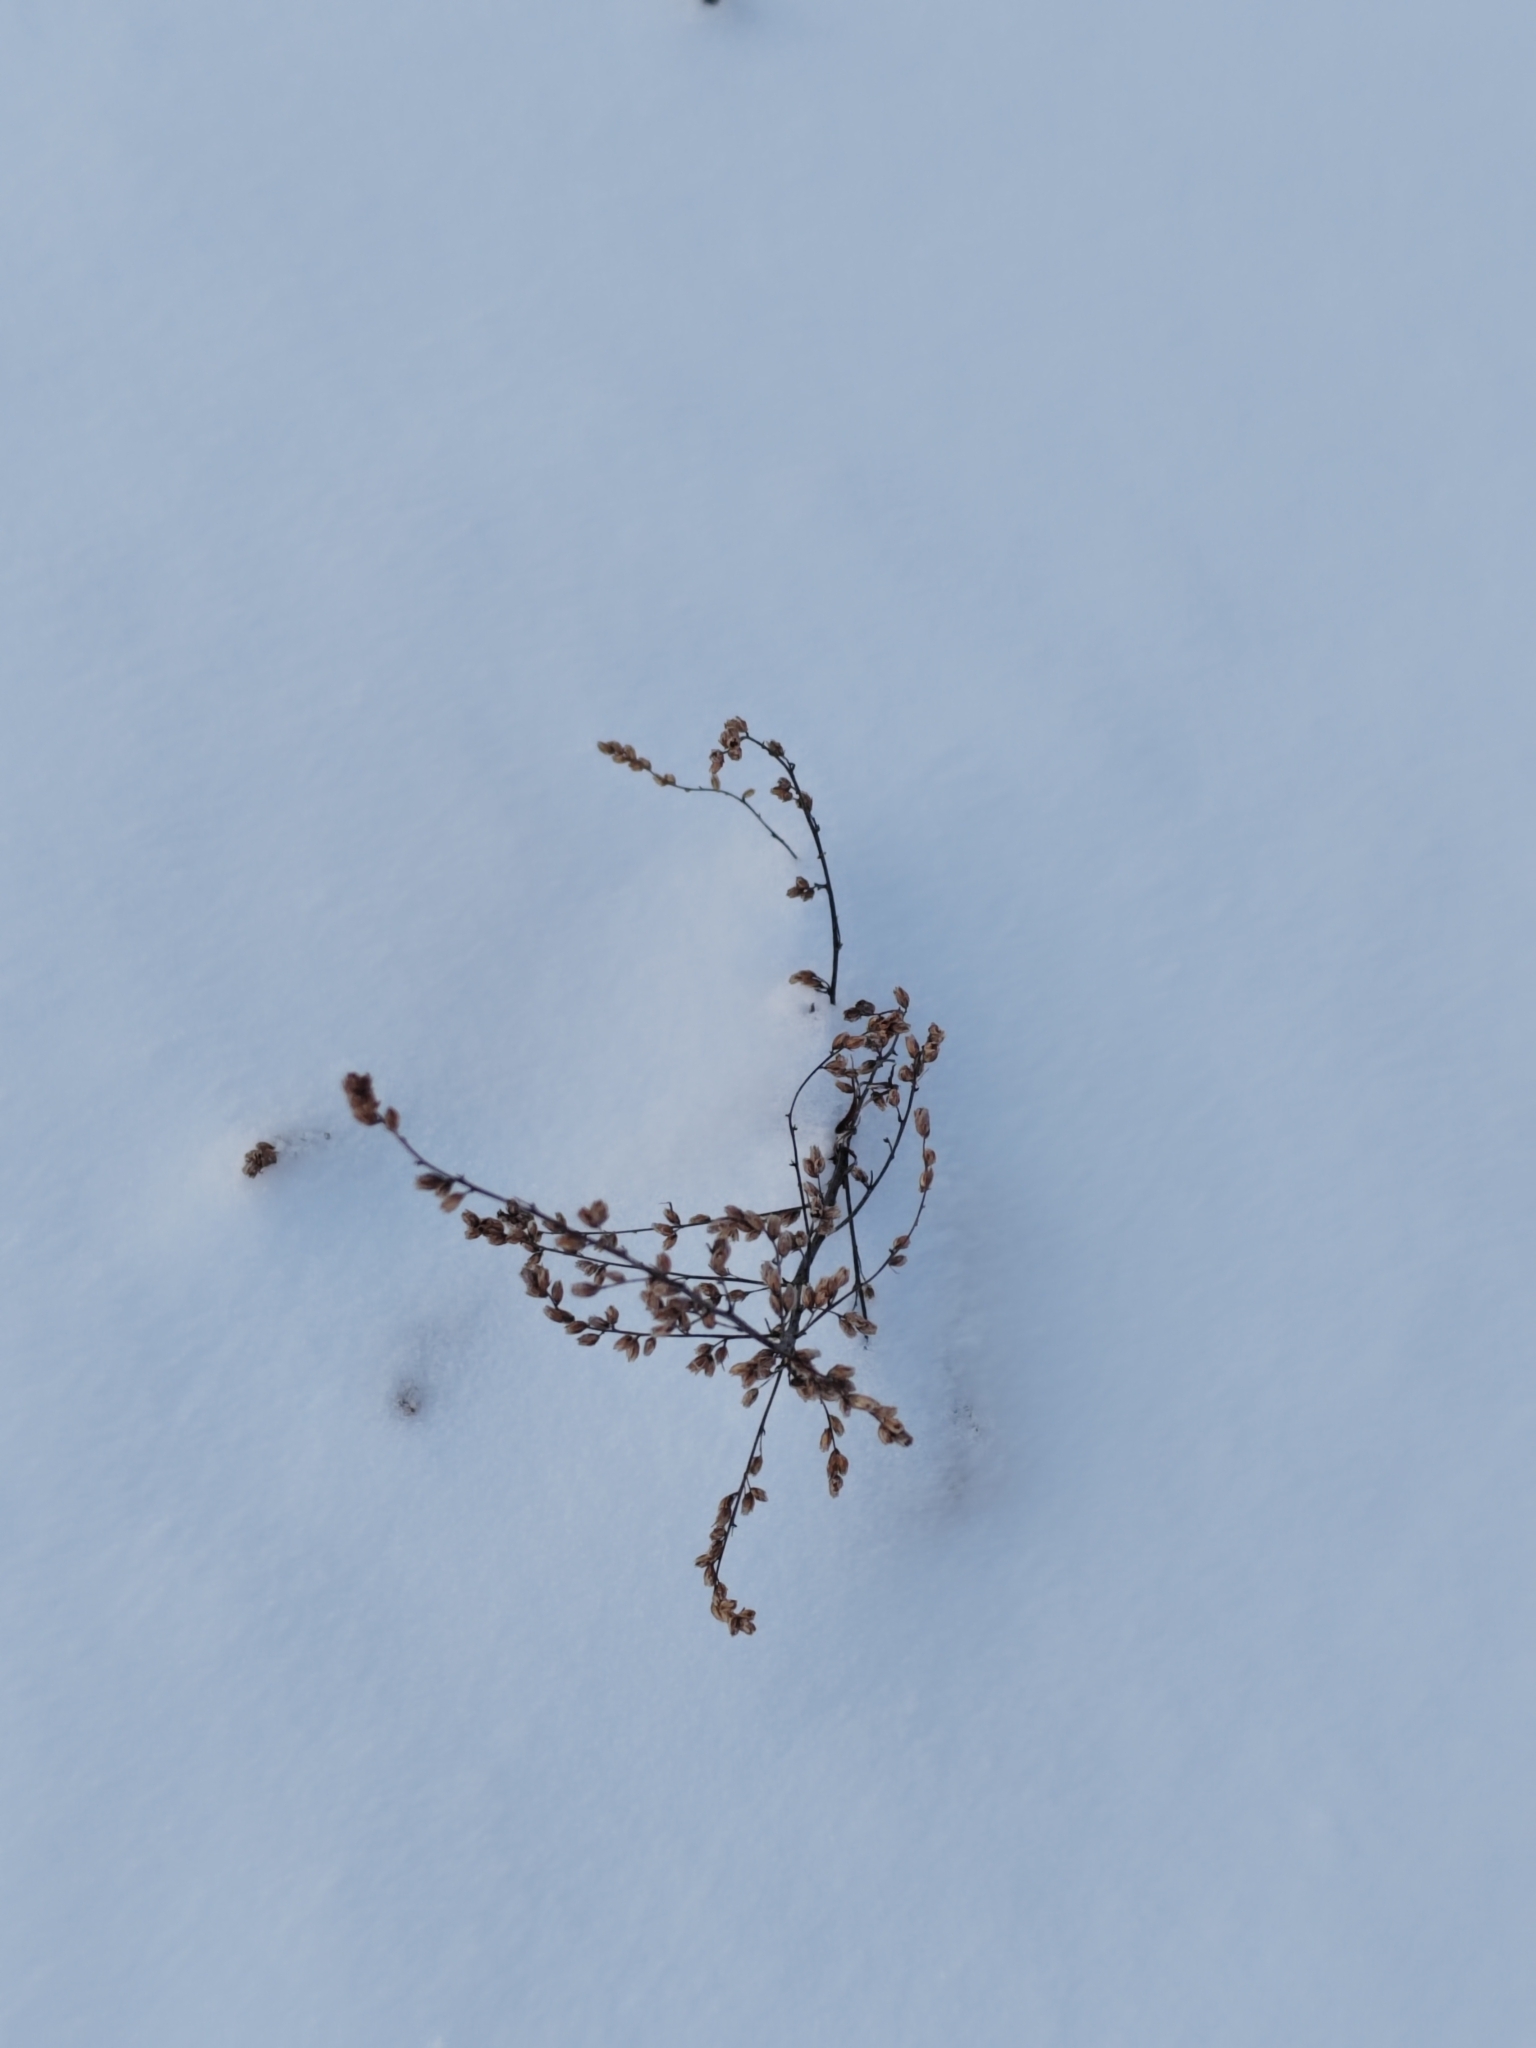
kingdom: Plantae
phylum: Tracheophyta
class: Magnoliopsida
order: Asterales
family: Asteraceae
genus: Artemisia
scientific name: Artemisia vulgaris
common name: Mugwort
